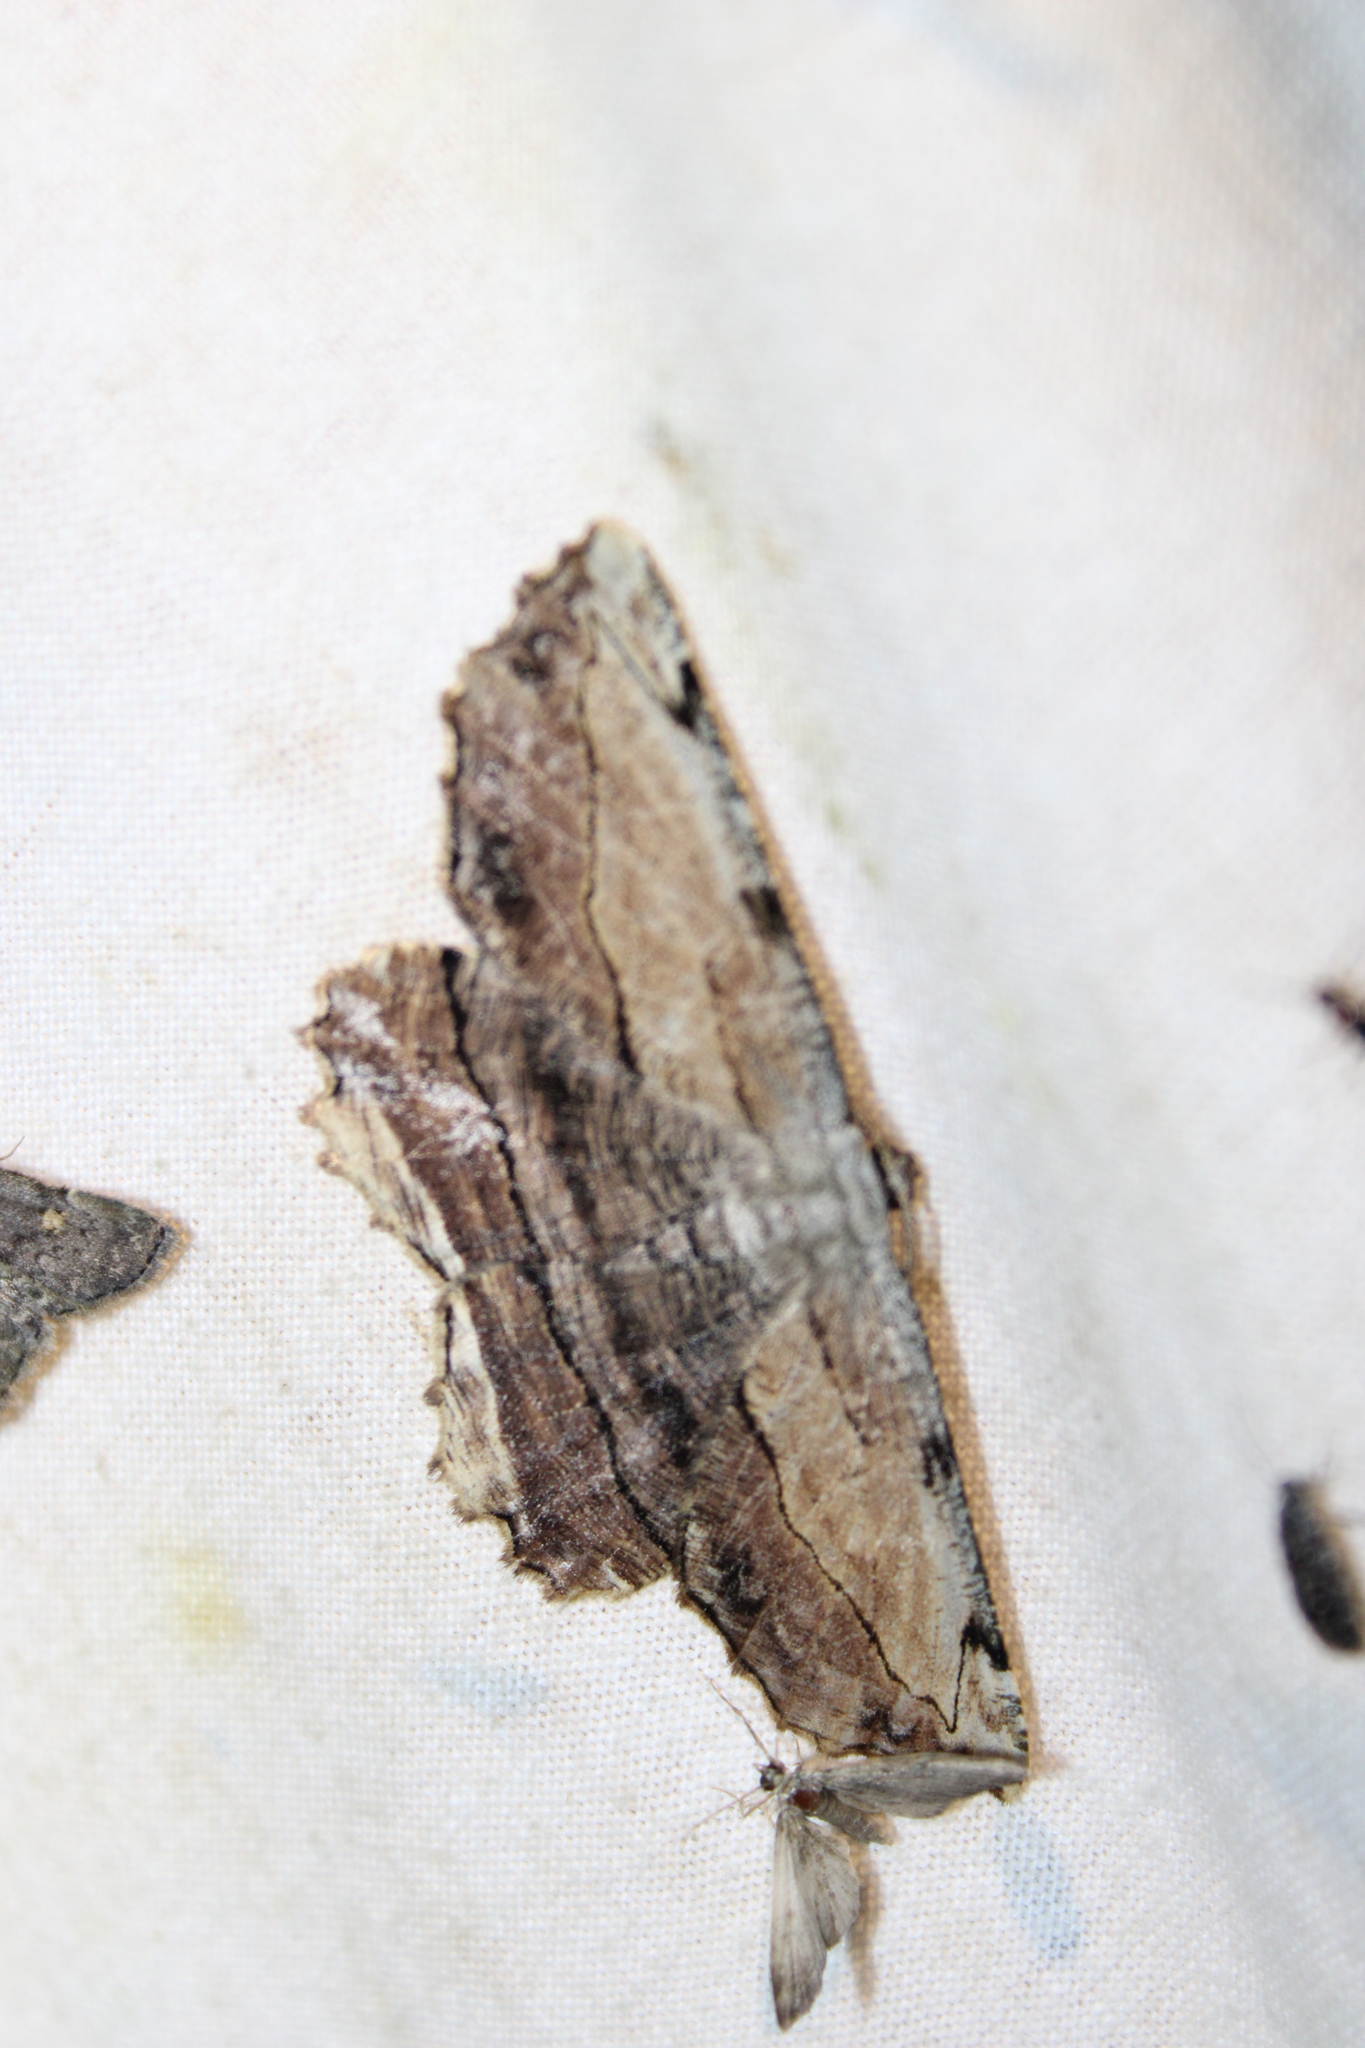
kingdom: Animalia
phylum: Arthropoda
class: Insecta
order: Lepidoptera
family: Geometridae
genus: Lytrosis
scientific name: Lytrosis unitaria
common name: Common lytrosis
